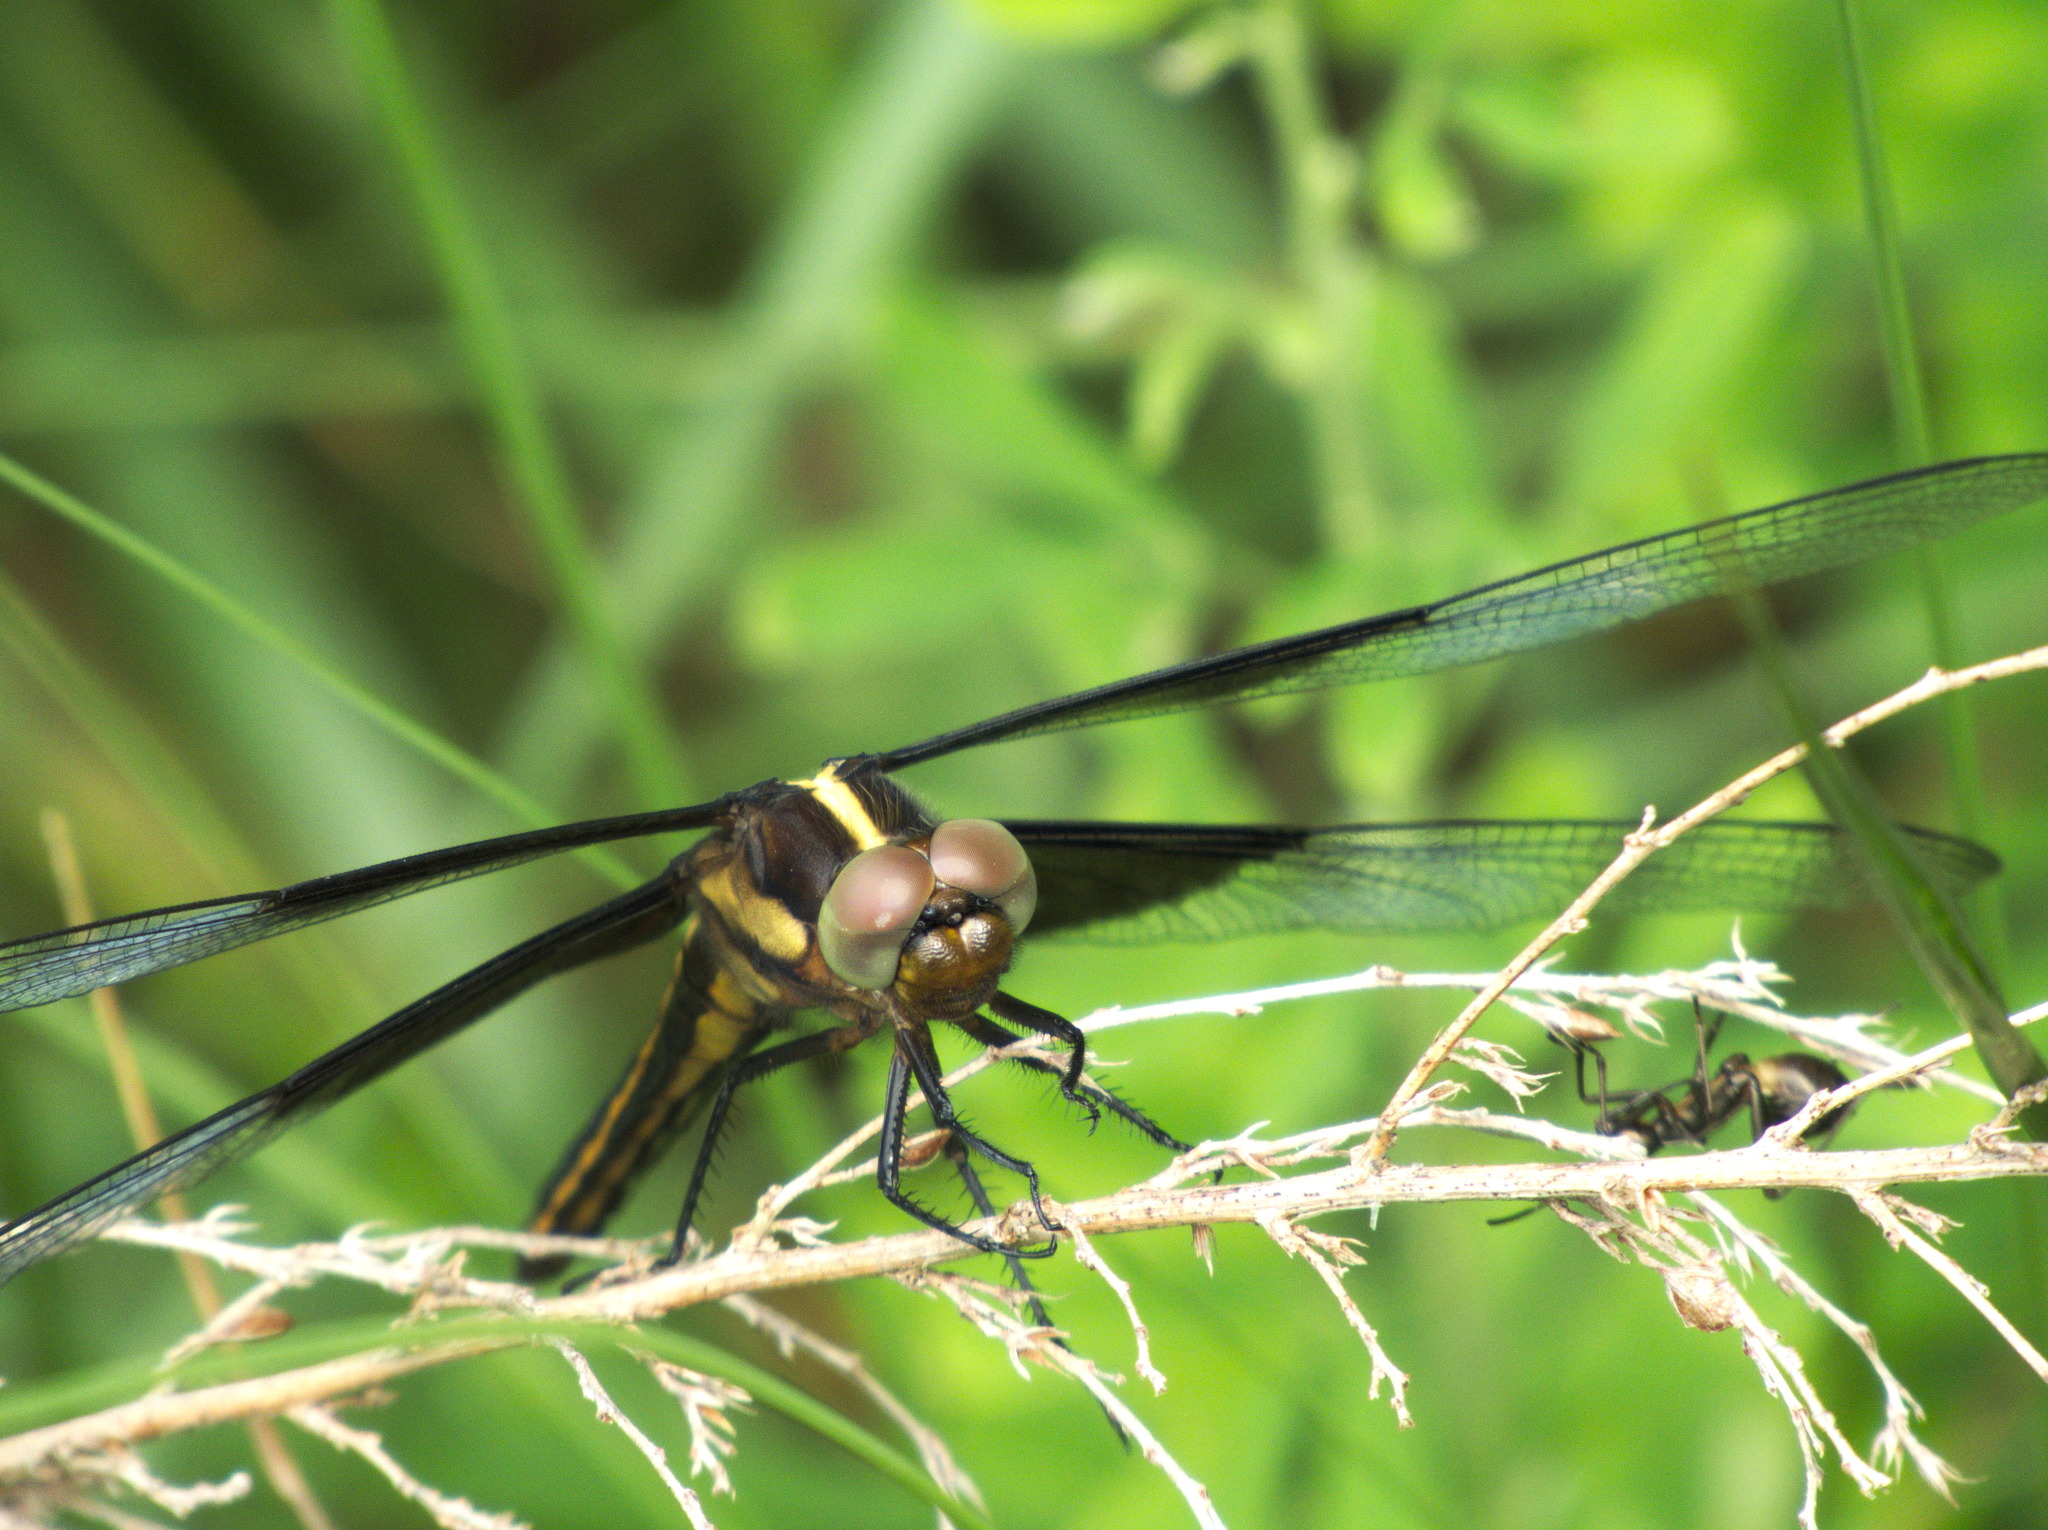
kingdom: Animalia
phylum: Arthropoda
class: Insecta
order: Odonata
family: Libellulidae
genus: Libellula
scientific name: Libellula luctuosa
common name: Widow skimmer
